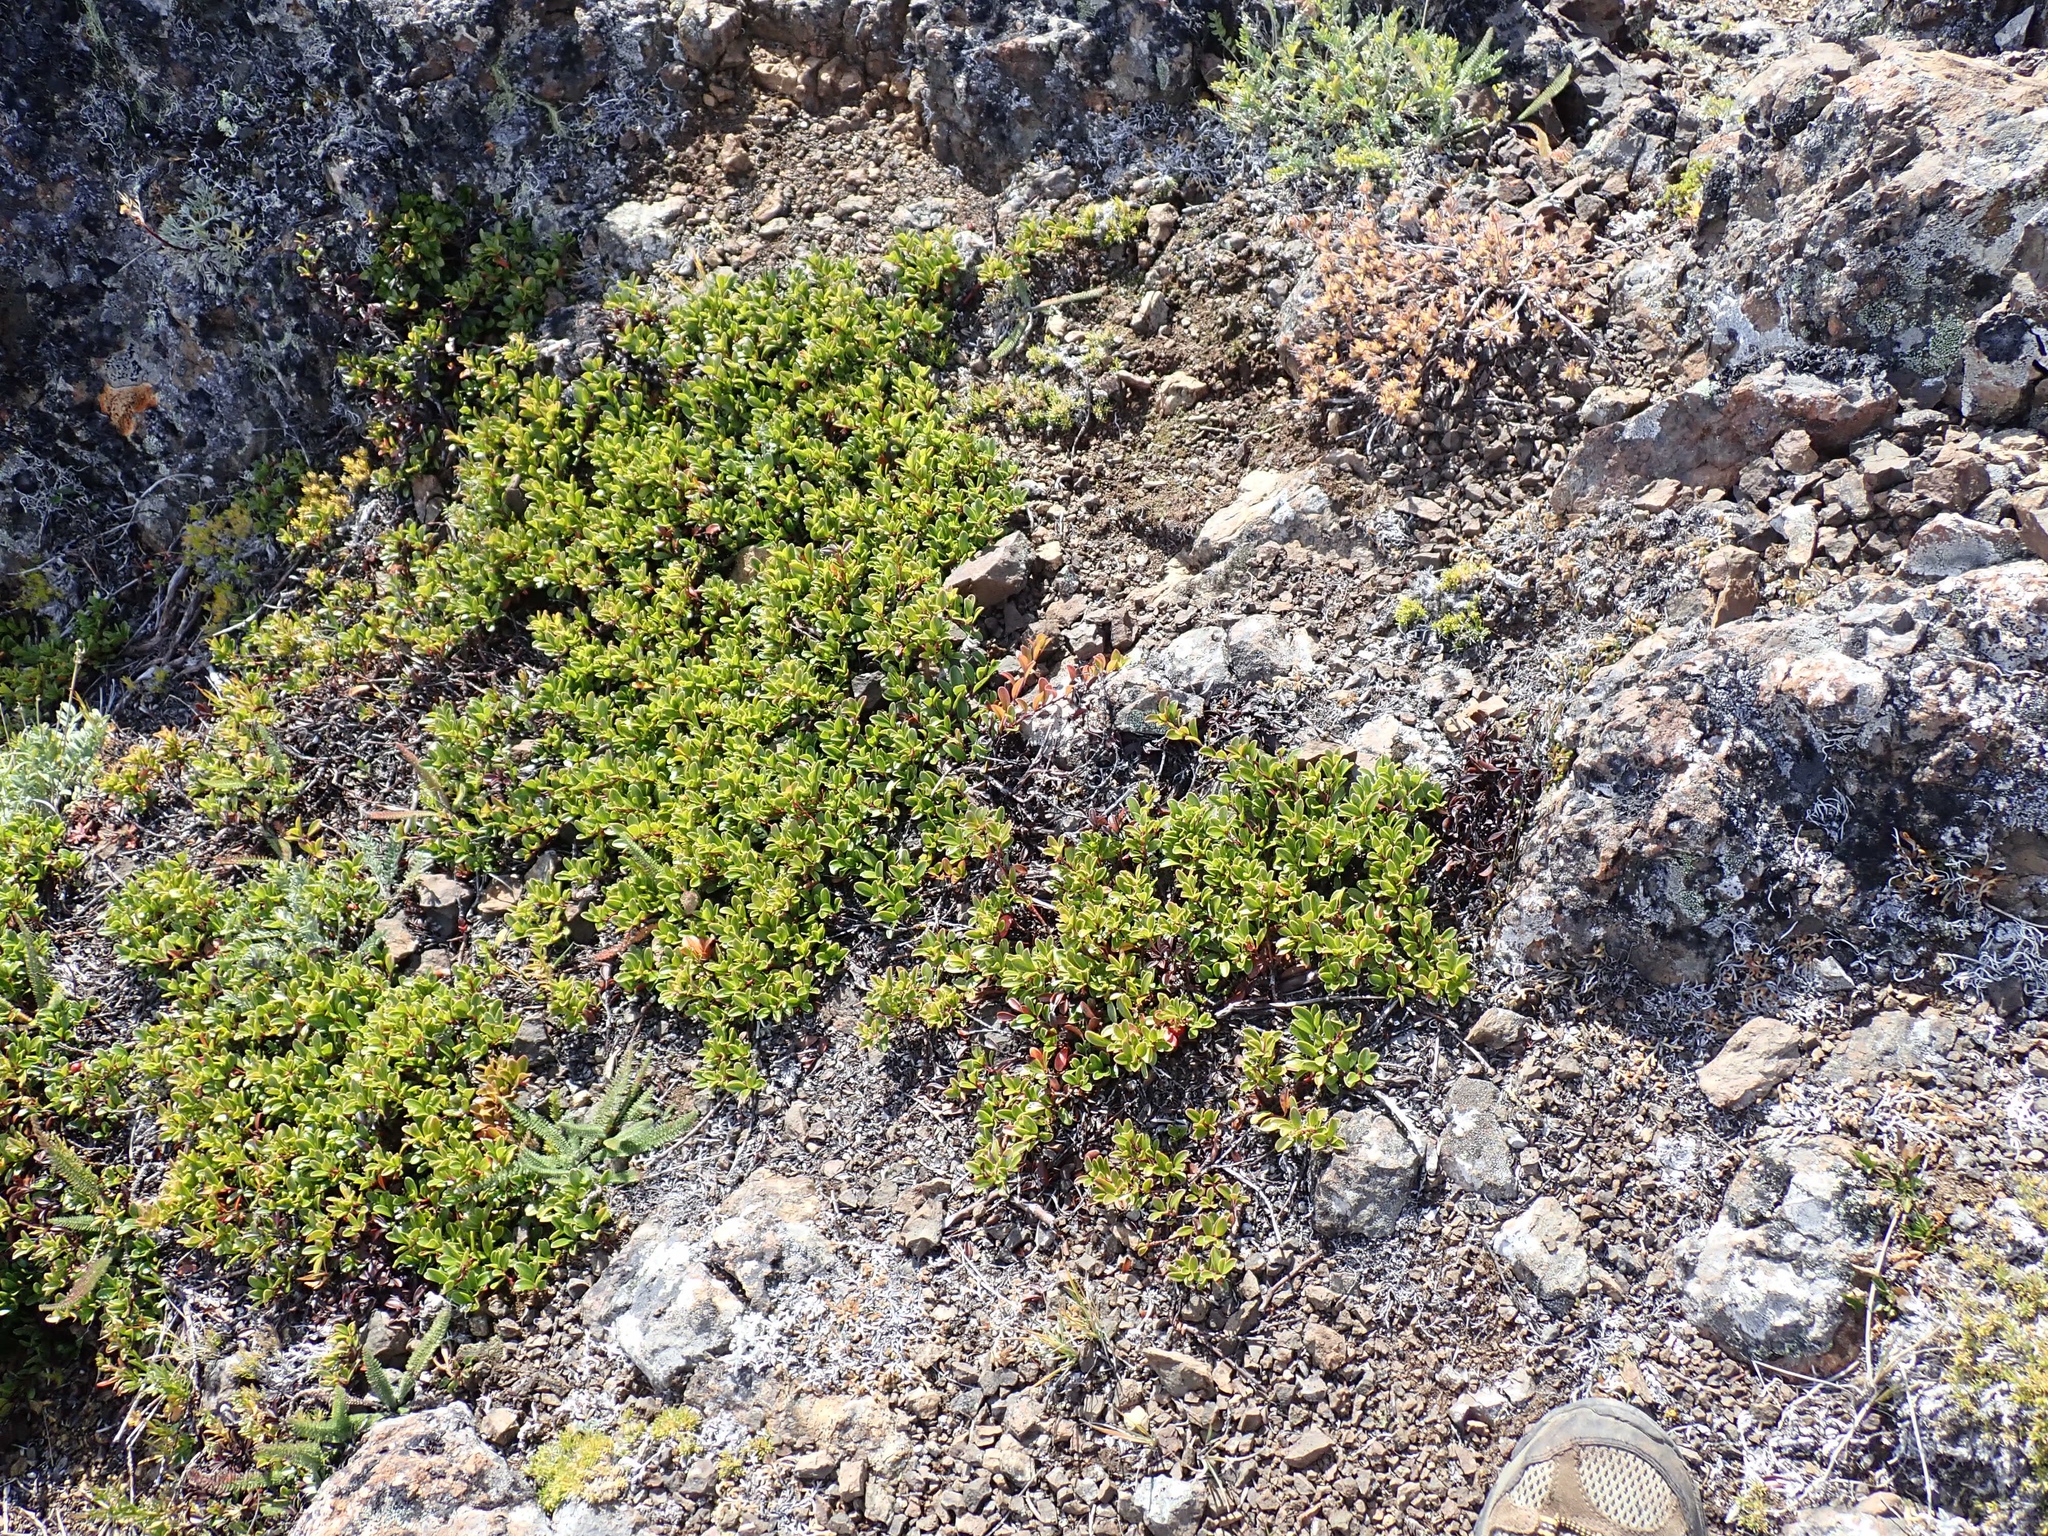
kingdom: Plantae
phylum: Tracheophyta
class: Magnoliopsida
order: Ericales
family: Ericaceae
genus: Arctostaphylos
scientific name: Arctostaphylos uva-ursi
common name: Bearberry
